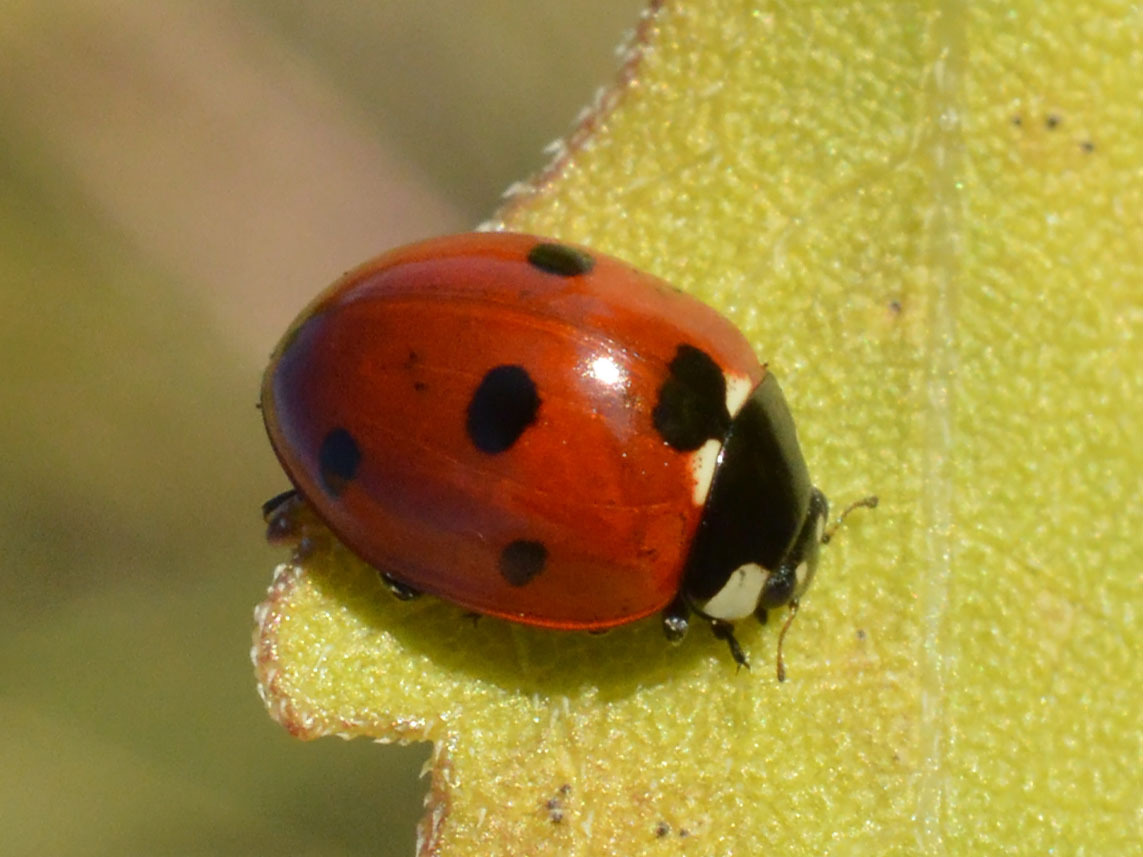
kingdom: Animalia
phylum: Arthropoda
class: Insecta
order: Coleoptera
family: Coccinellidae
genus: Coccinella
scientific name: Coccinella septempunctata
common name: Sevenspotted lady beetle
